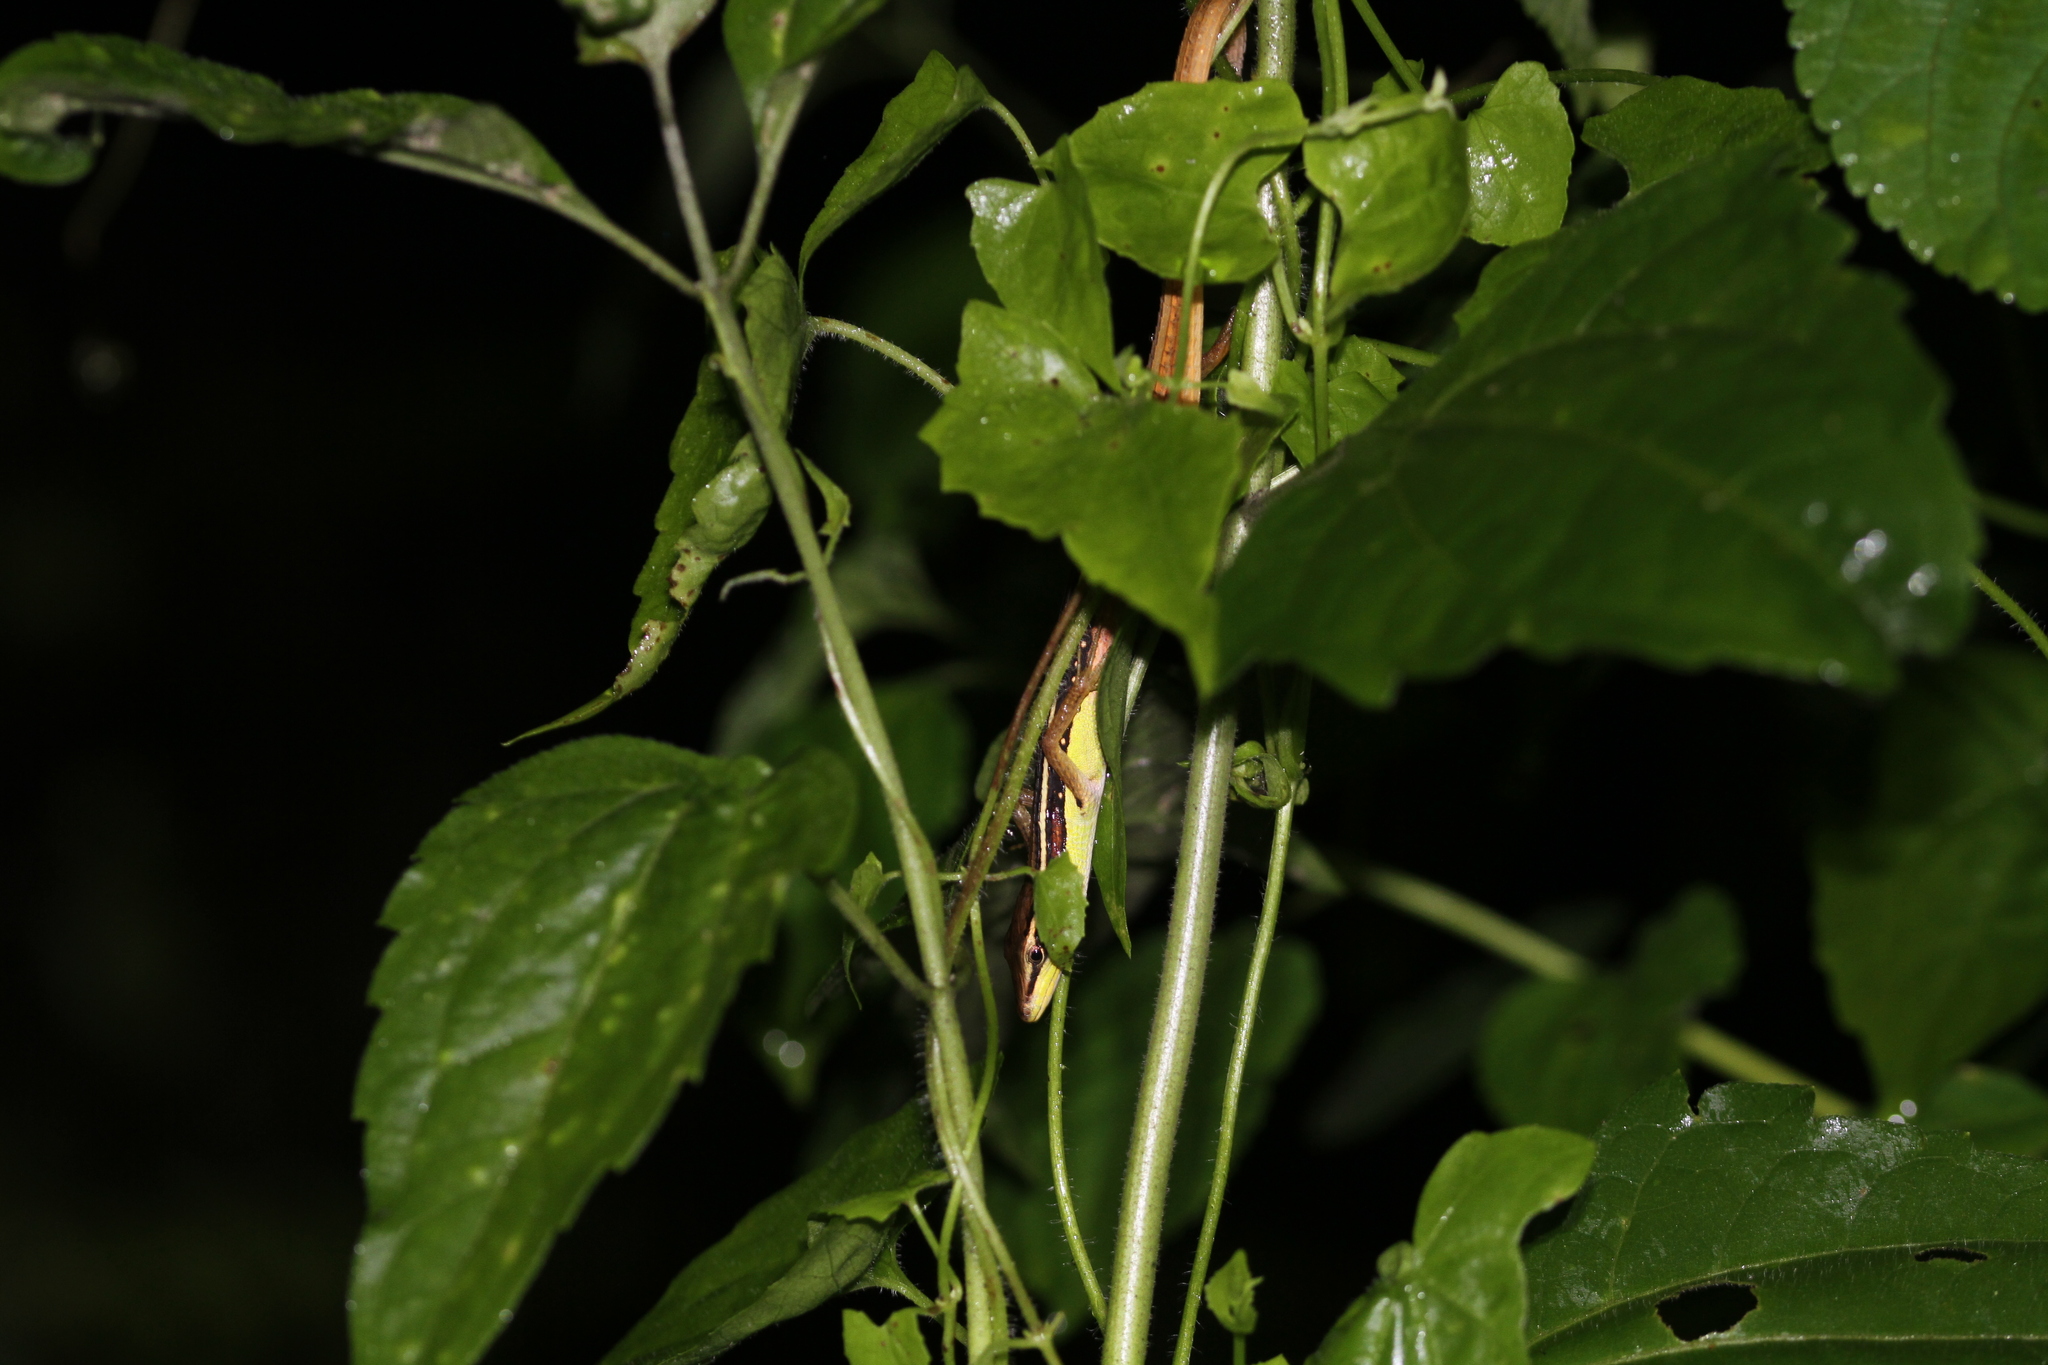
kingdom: Animalia
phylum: Chordata
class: Squamata
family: Lacertidae
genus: Takydromus
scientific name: Takydromus sexlineatus
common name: Asian grass lizard
